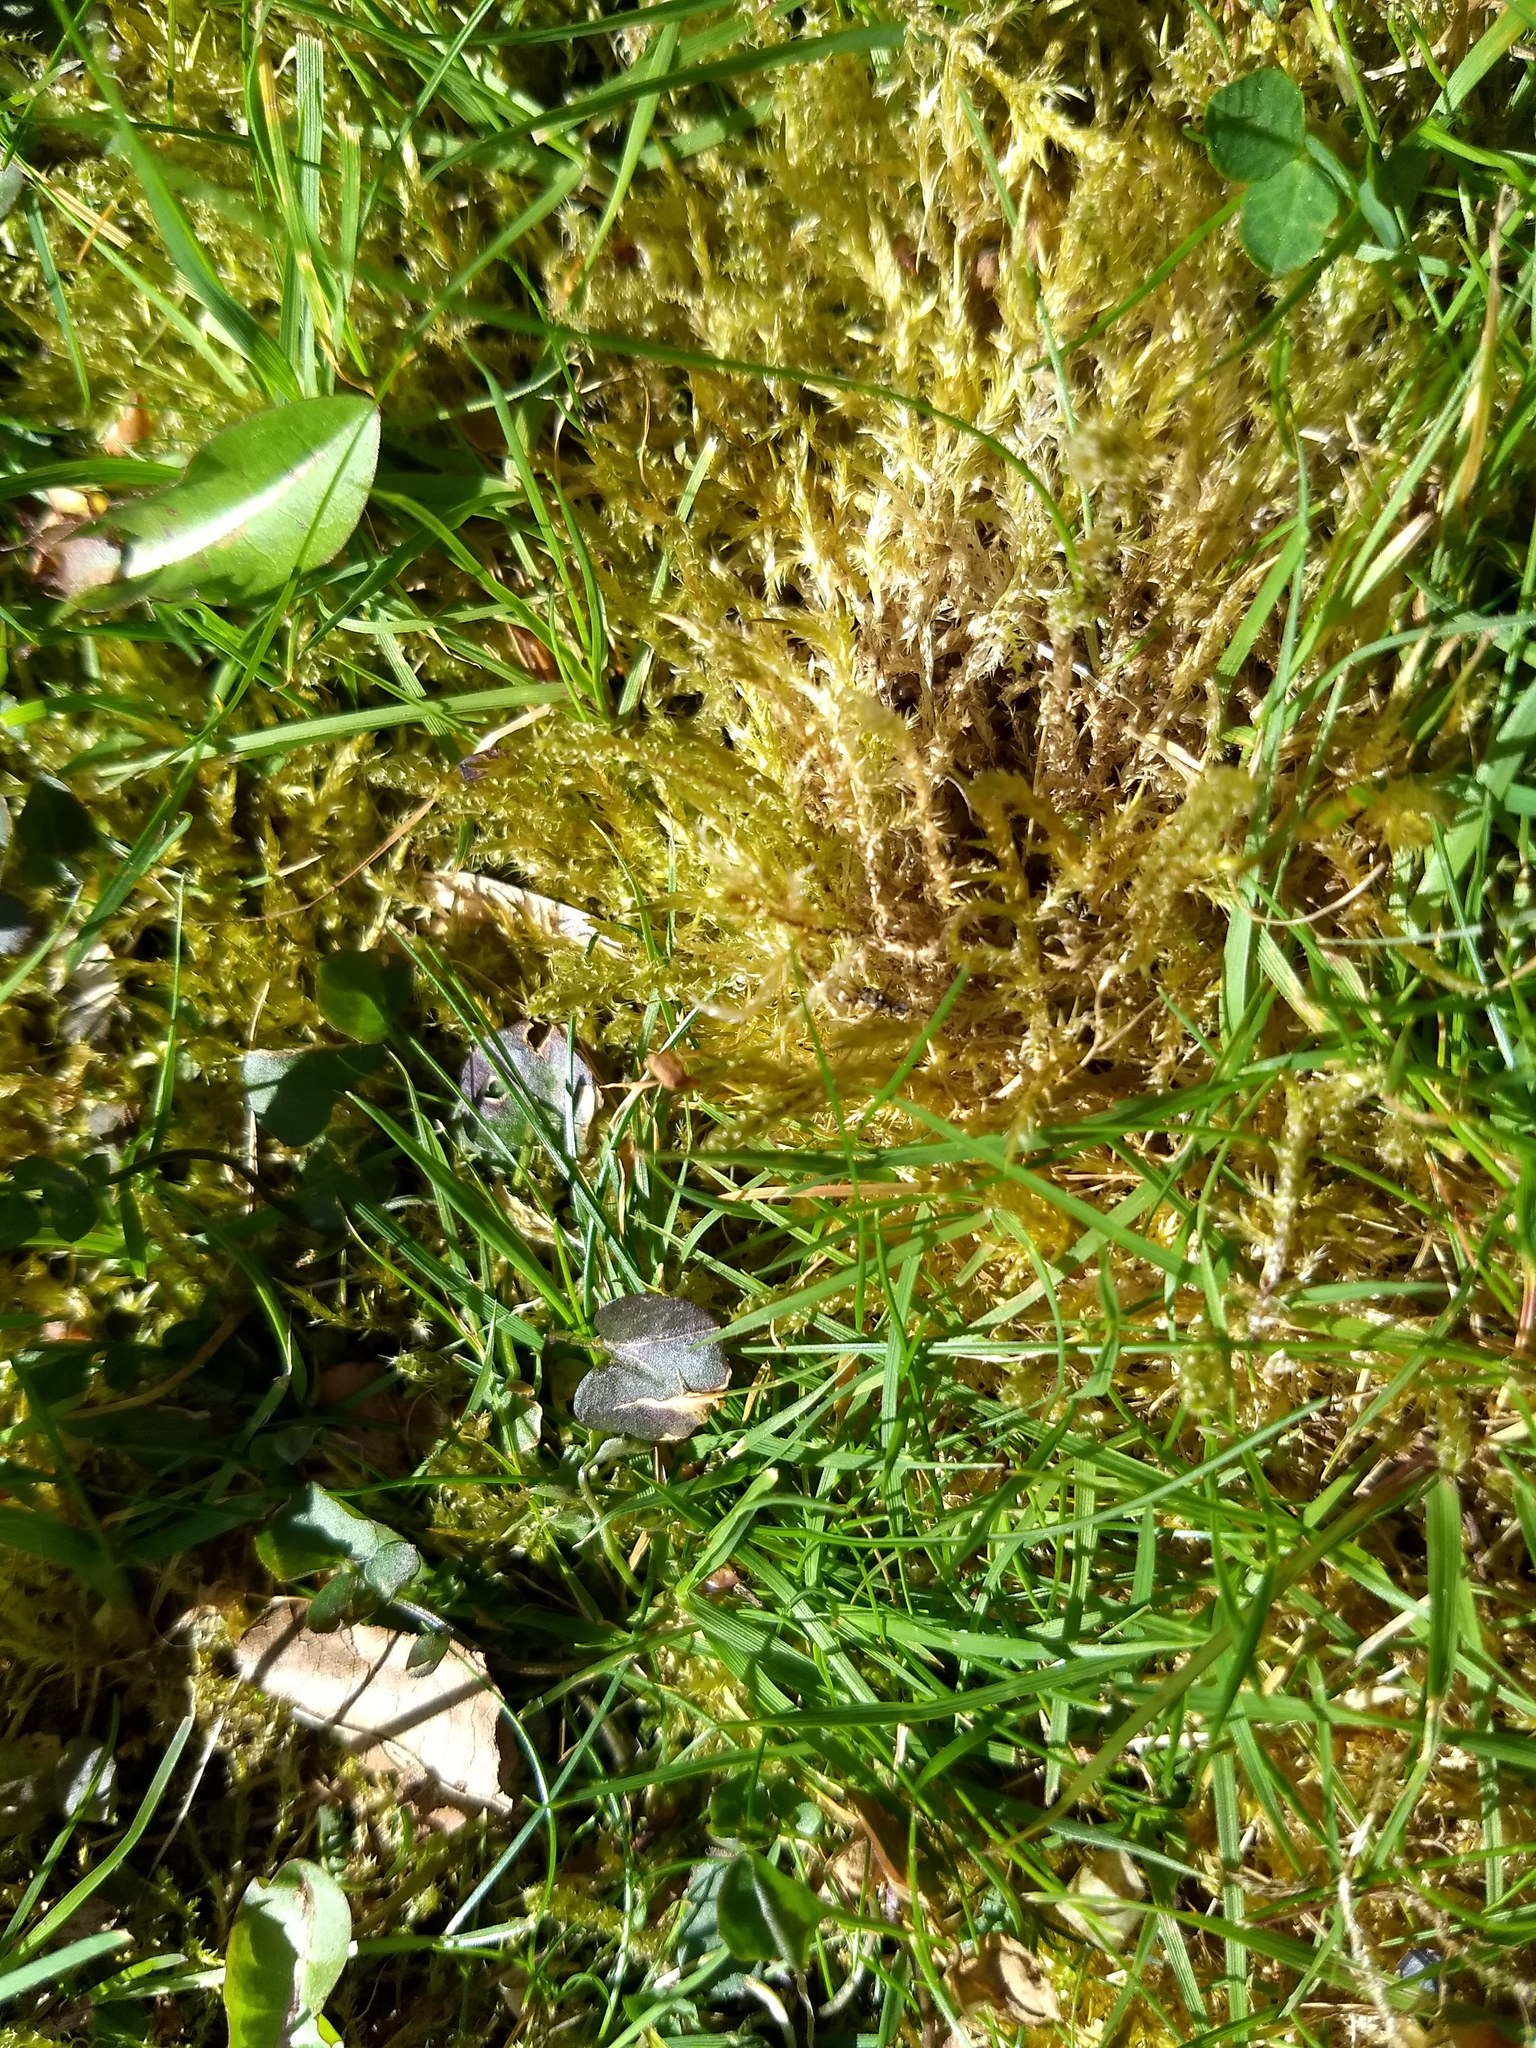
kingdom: Plantae
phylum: Bryophyta
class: Bryopsida
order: Hypnales
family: Pylaisiaceae
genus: Calliergonella
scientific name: Calliergonella cuspidata
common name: Common large wetland moss
